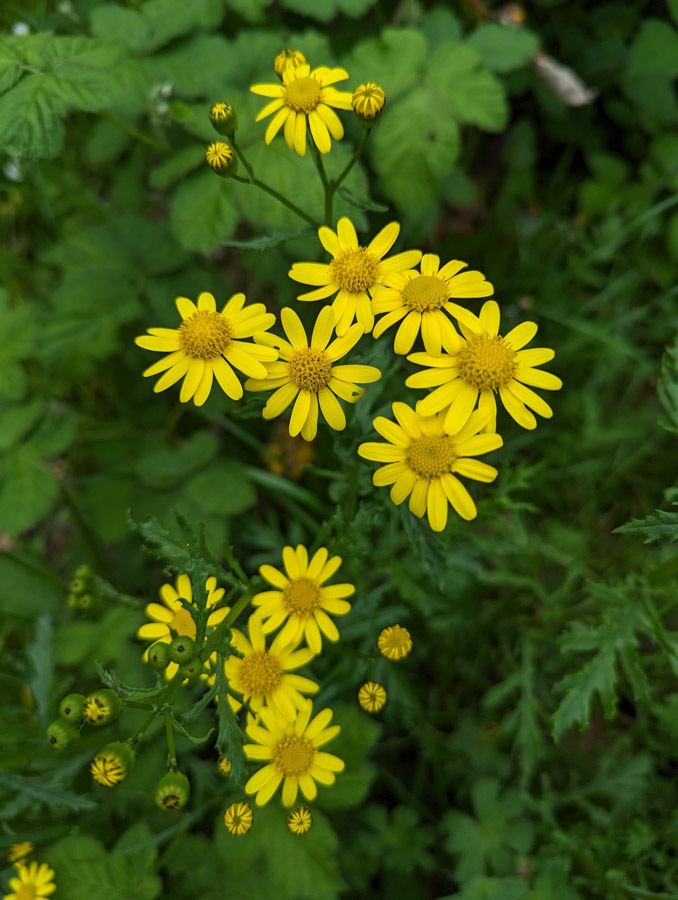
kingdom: Plantae
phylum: Tracheophyta
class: Magnoliopsida
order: Asterales
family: Asteraceae
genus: Senecio
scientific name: Senecio squalidus
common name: Oxford ragwort
